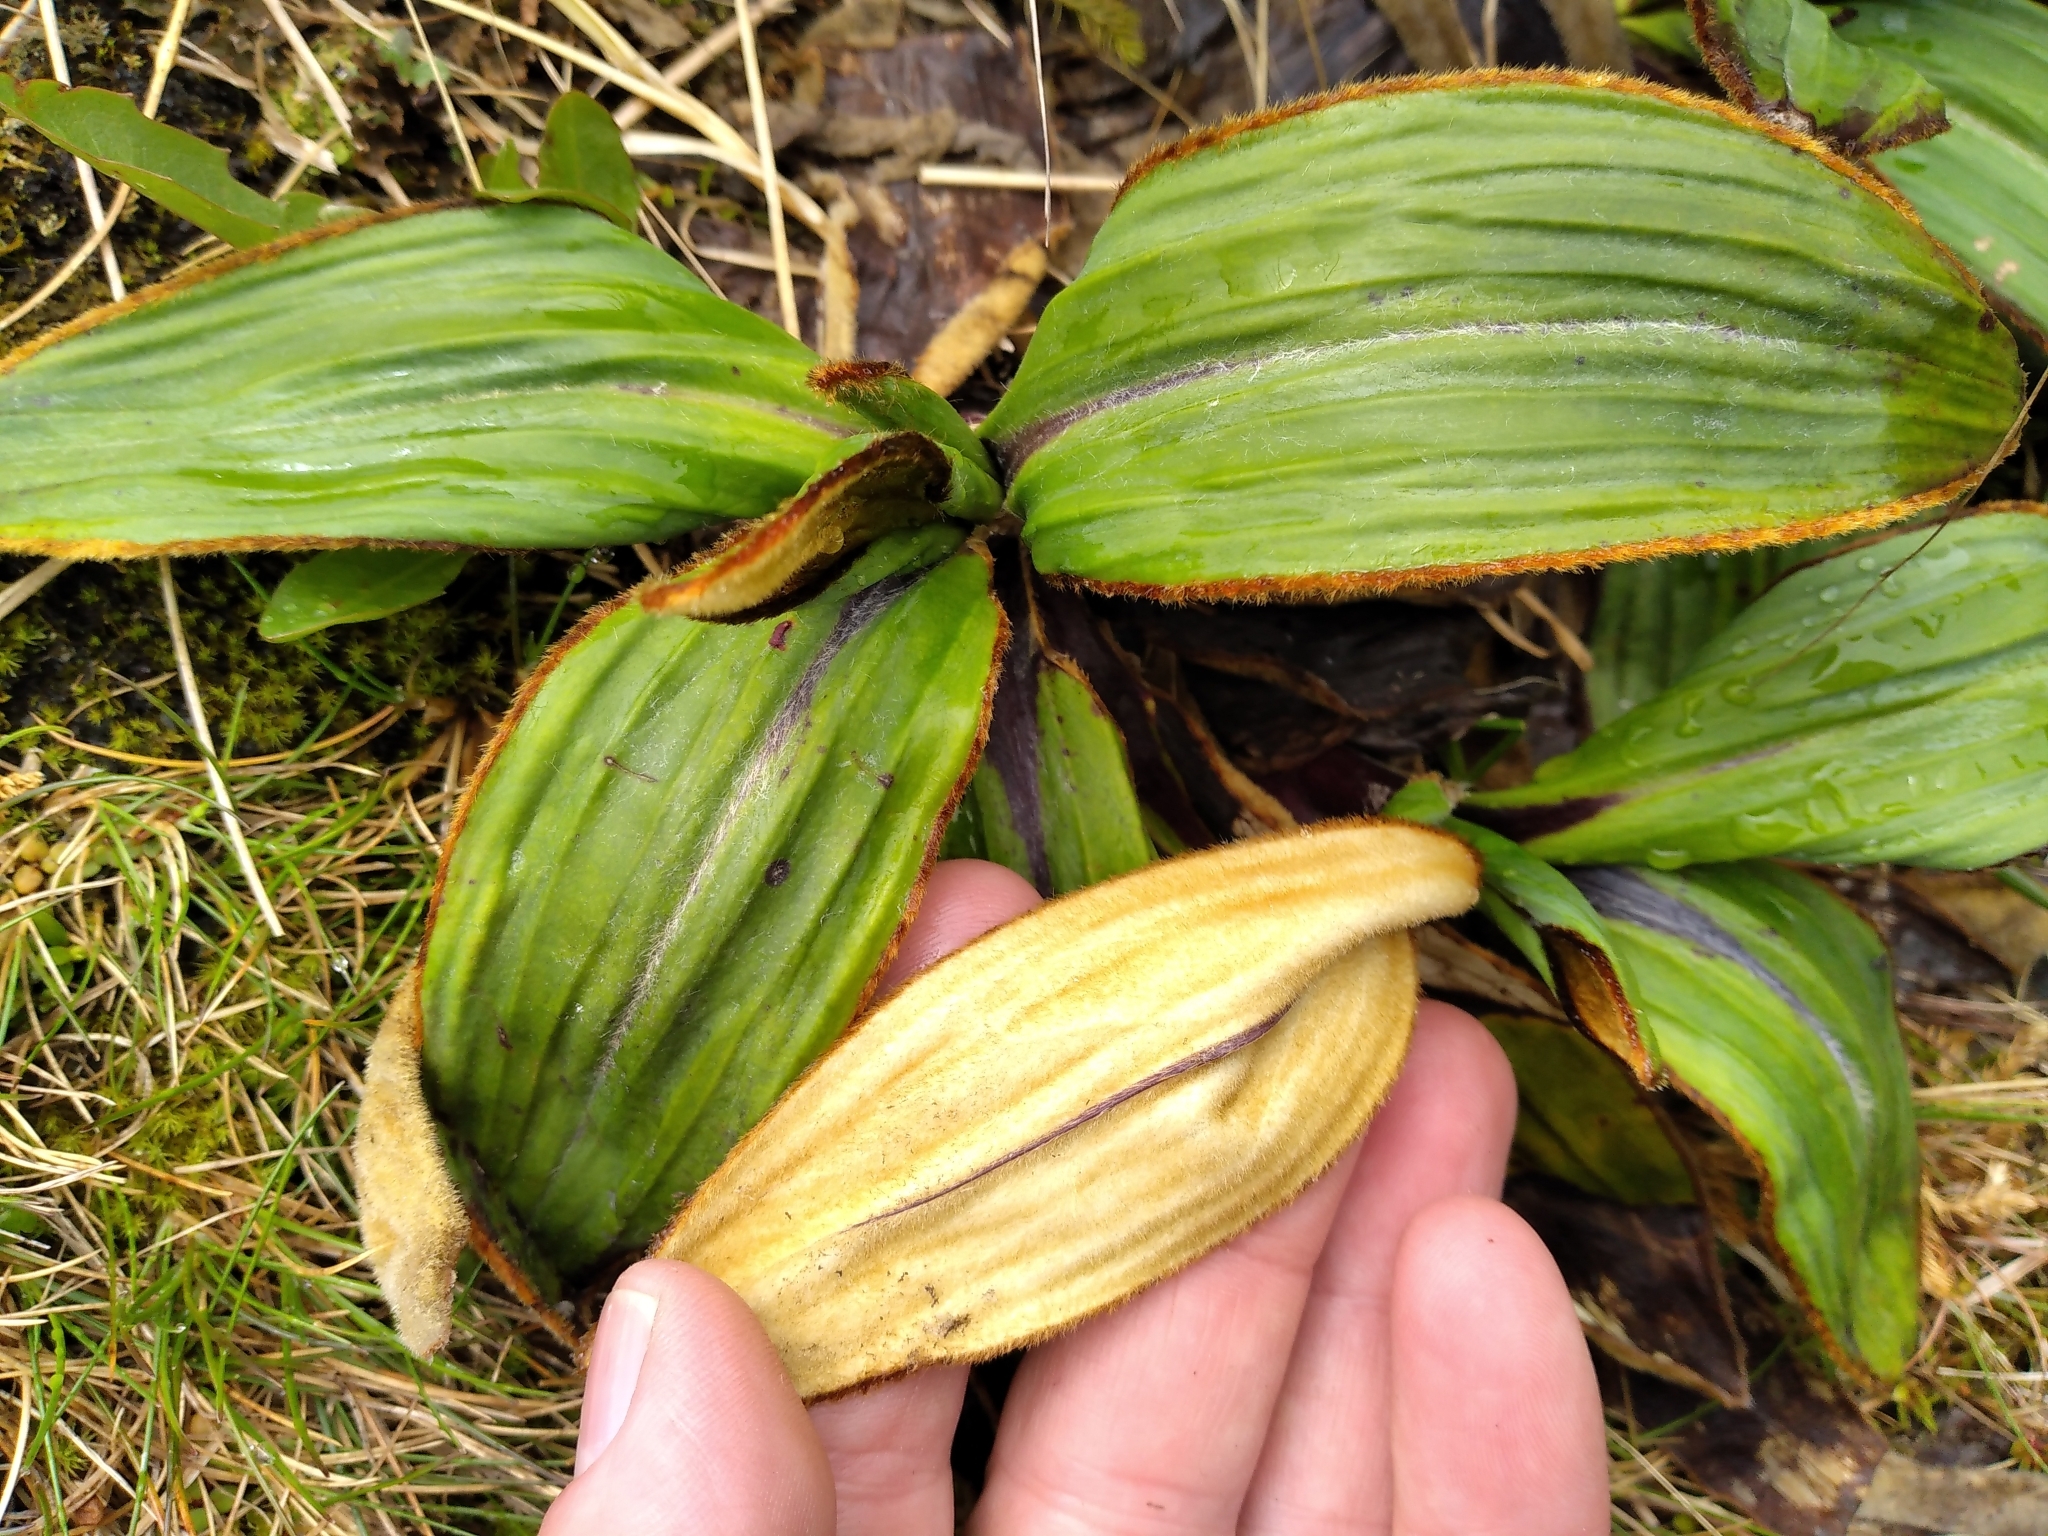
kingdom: Plantae
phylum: Tracheophyta
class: Magnoliopsida
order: Asterales
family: Asteraceae
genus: Celmisia
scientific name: Celmisia traversii
